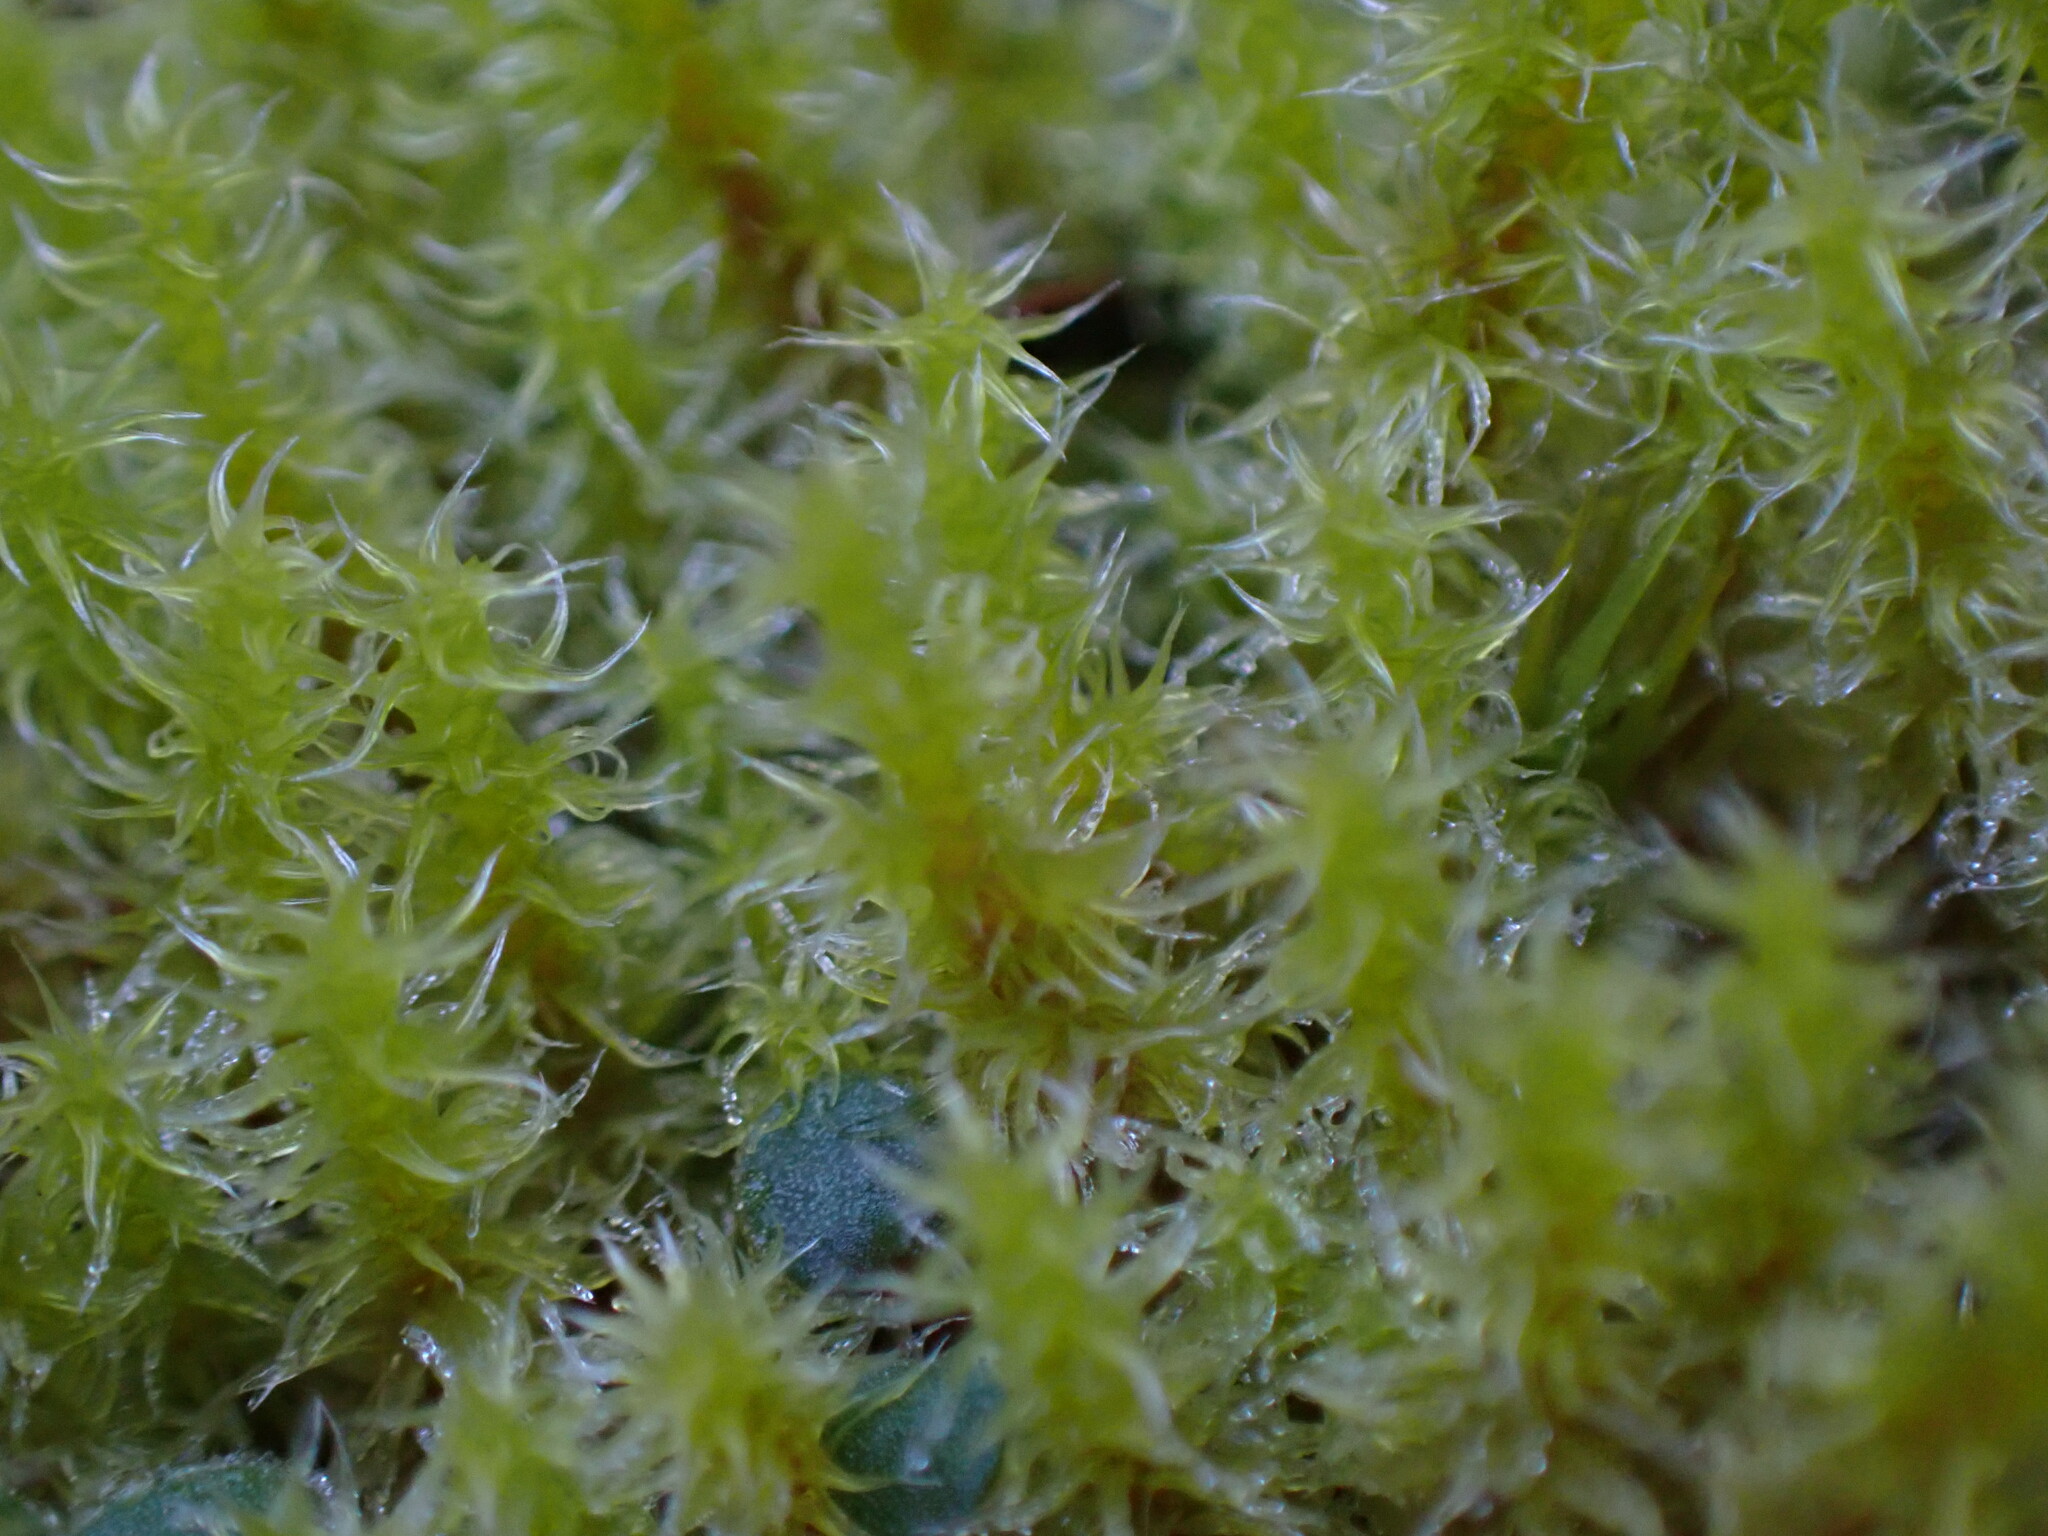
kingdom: Plantae
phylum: Bryophyta
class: Bryopsida
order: Grimmiales
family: Grimmiaceae
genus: Niphotrichum
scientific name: Niphotrichum elongatum
